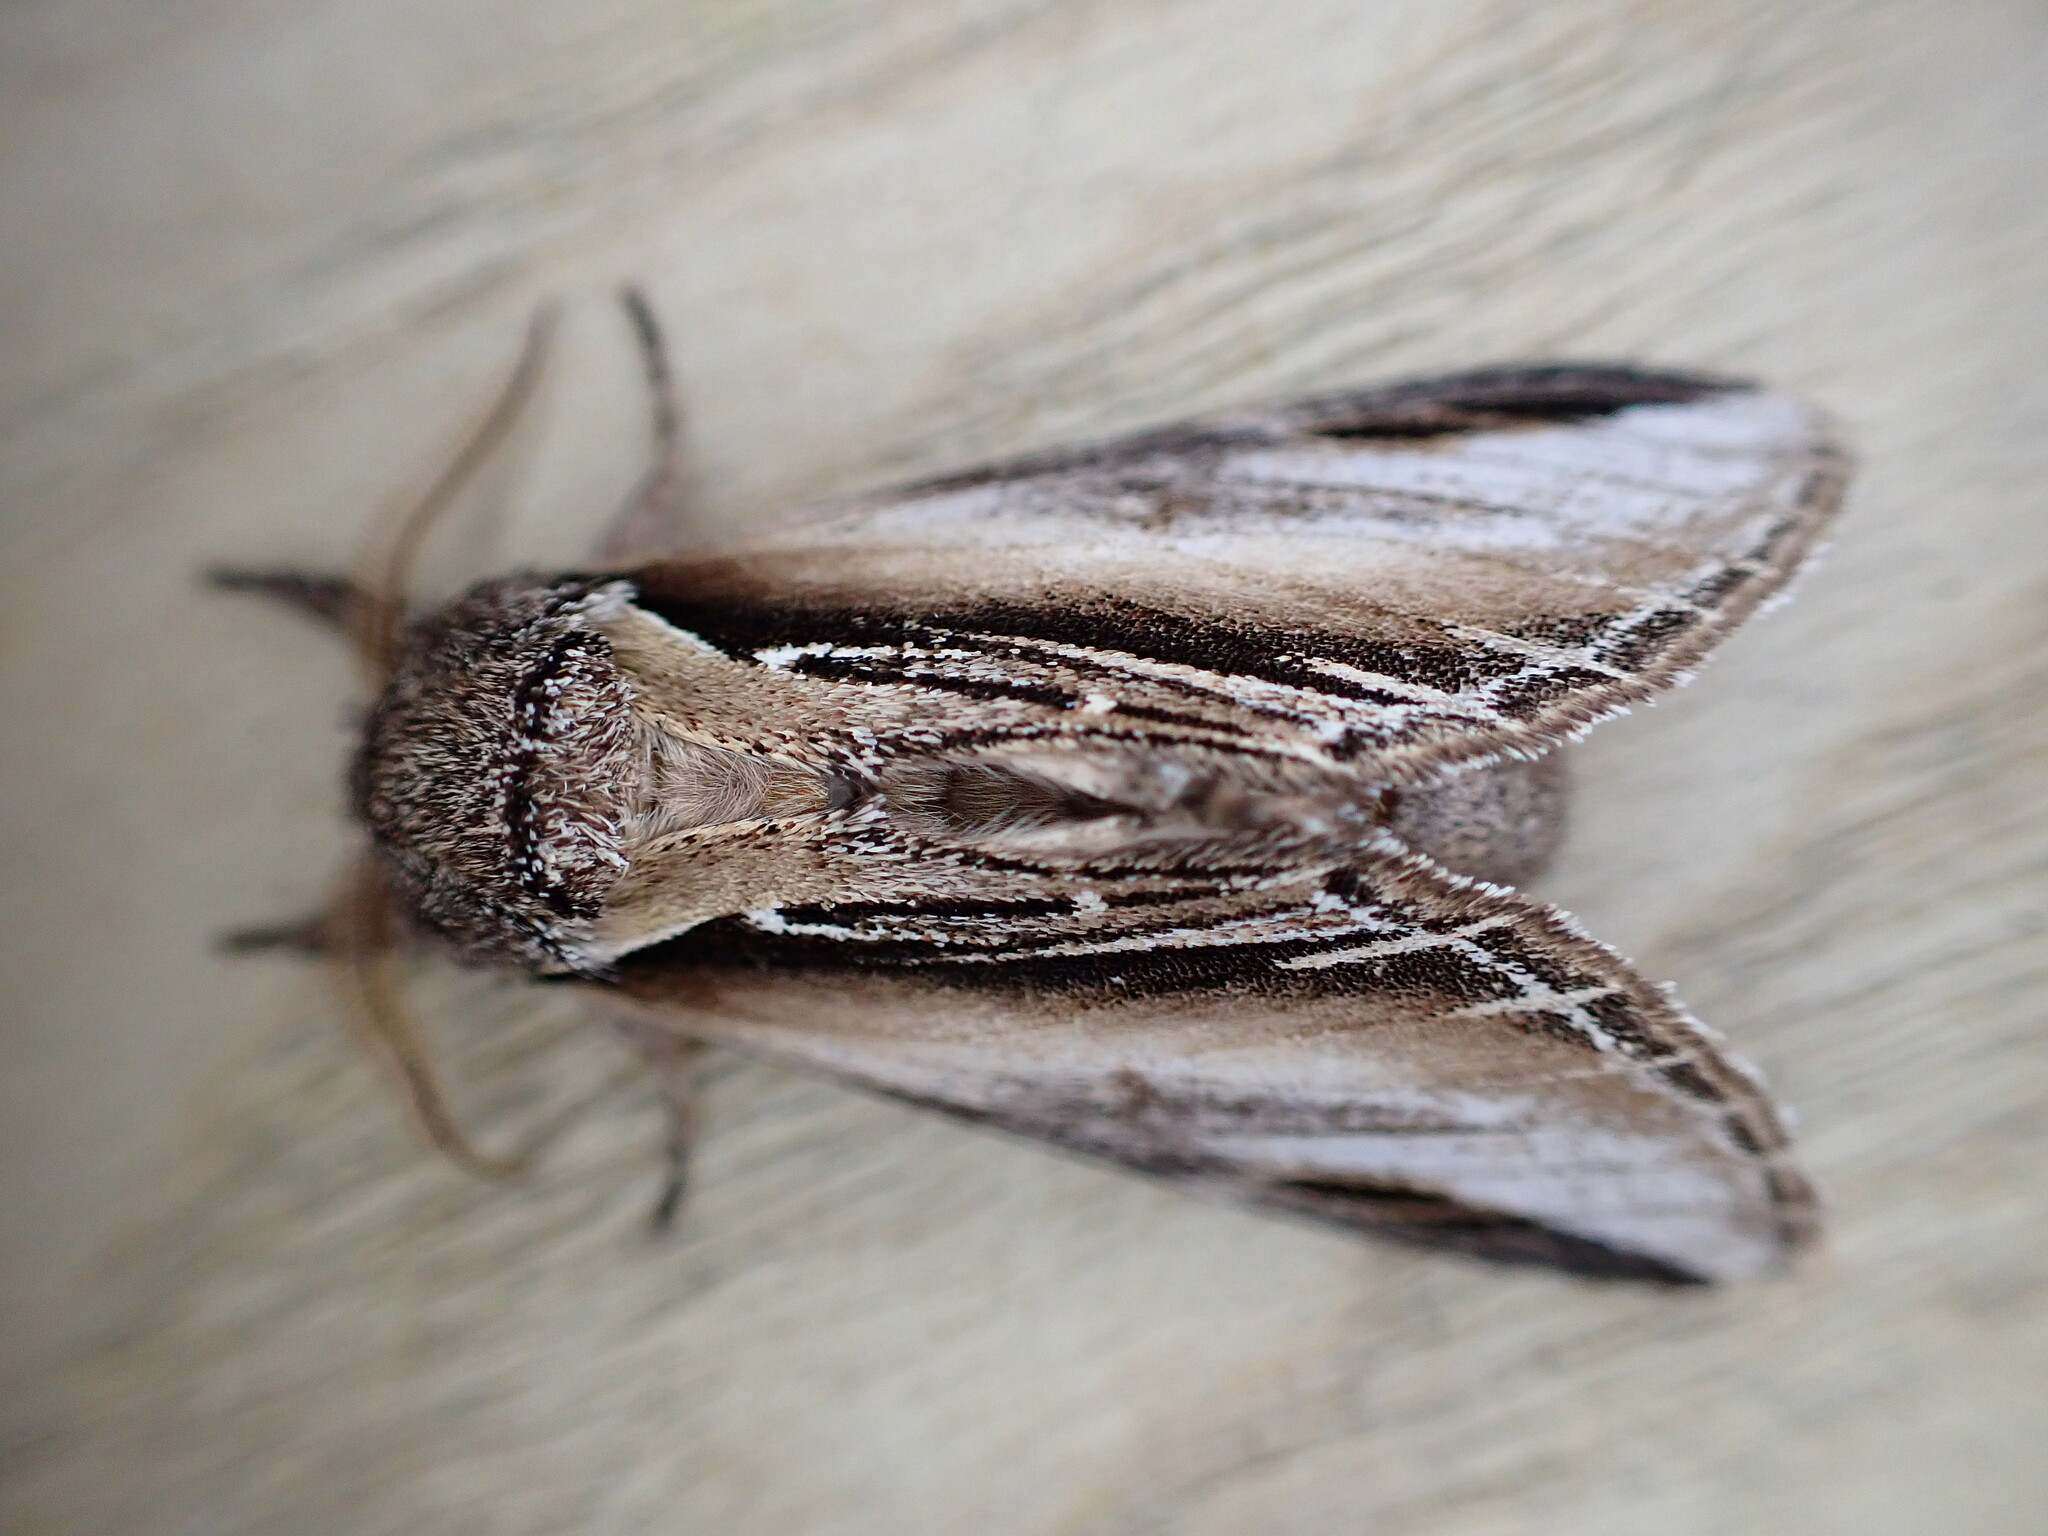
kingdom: Animalia
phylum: Arthropoda
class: Insecta
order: Lepidoptera
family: Notodontidae
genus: Pheosia
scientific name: Pheosia tremula
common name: Swallow prominent
